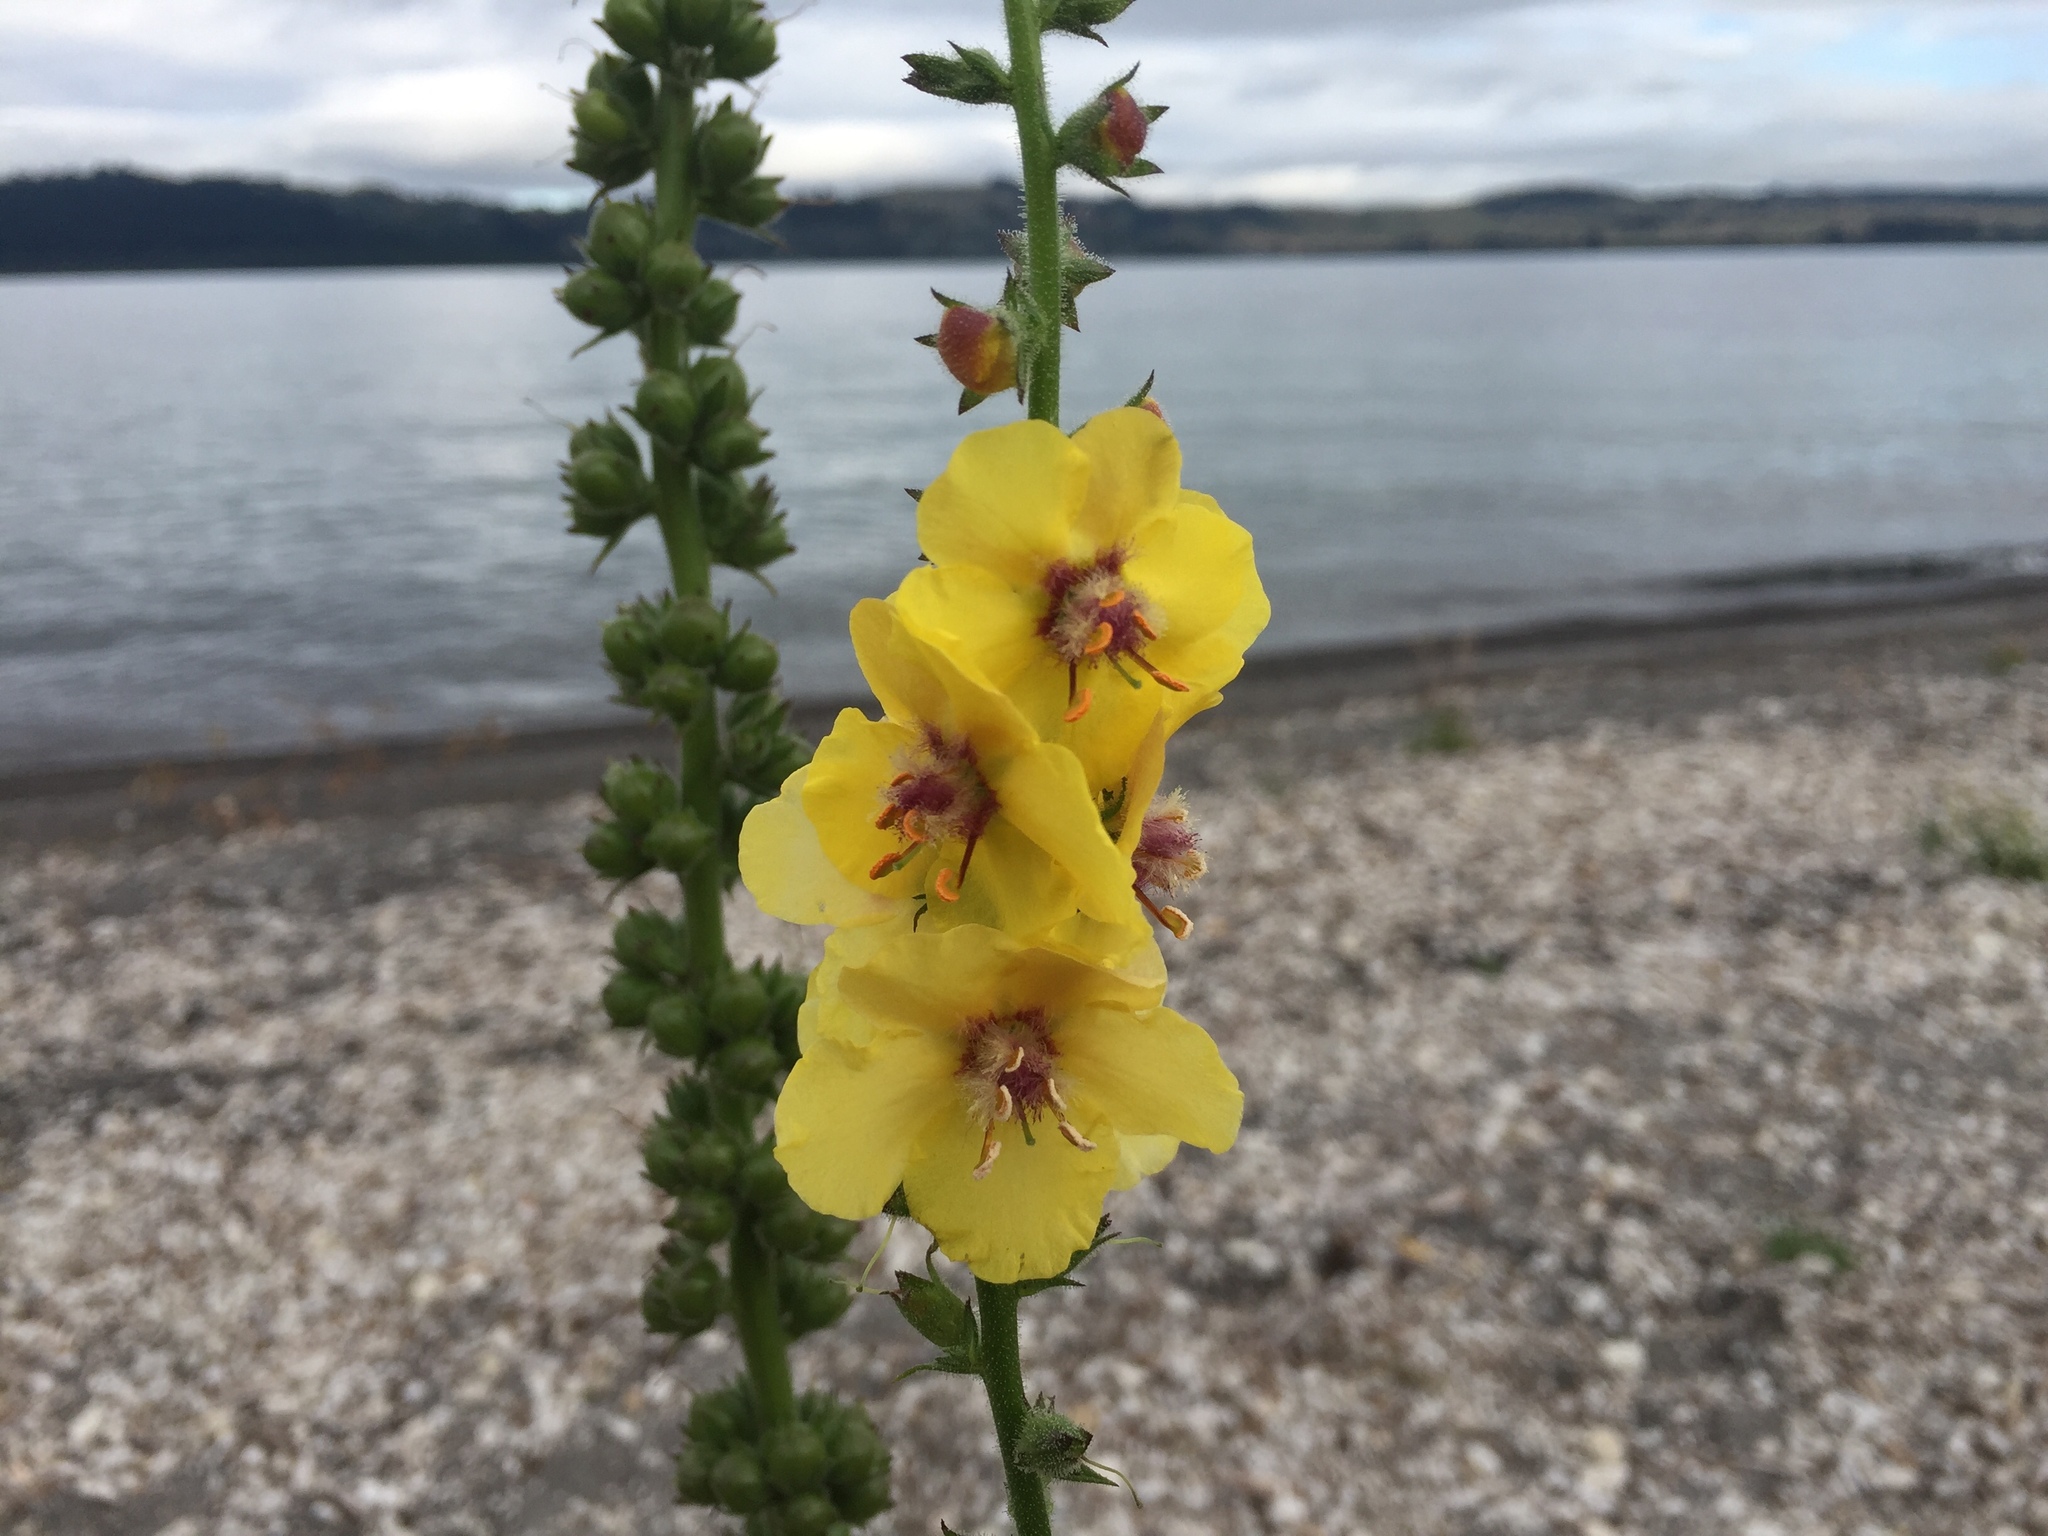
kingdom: Plantae
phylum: Tracheophyta
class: Magnoliopsida
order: Lamiales
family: Scrophulariaceae
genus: Verbascum
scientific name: Verbascum virgatum
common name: Twiggy mullein
